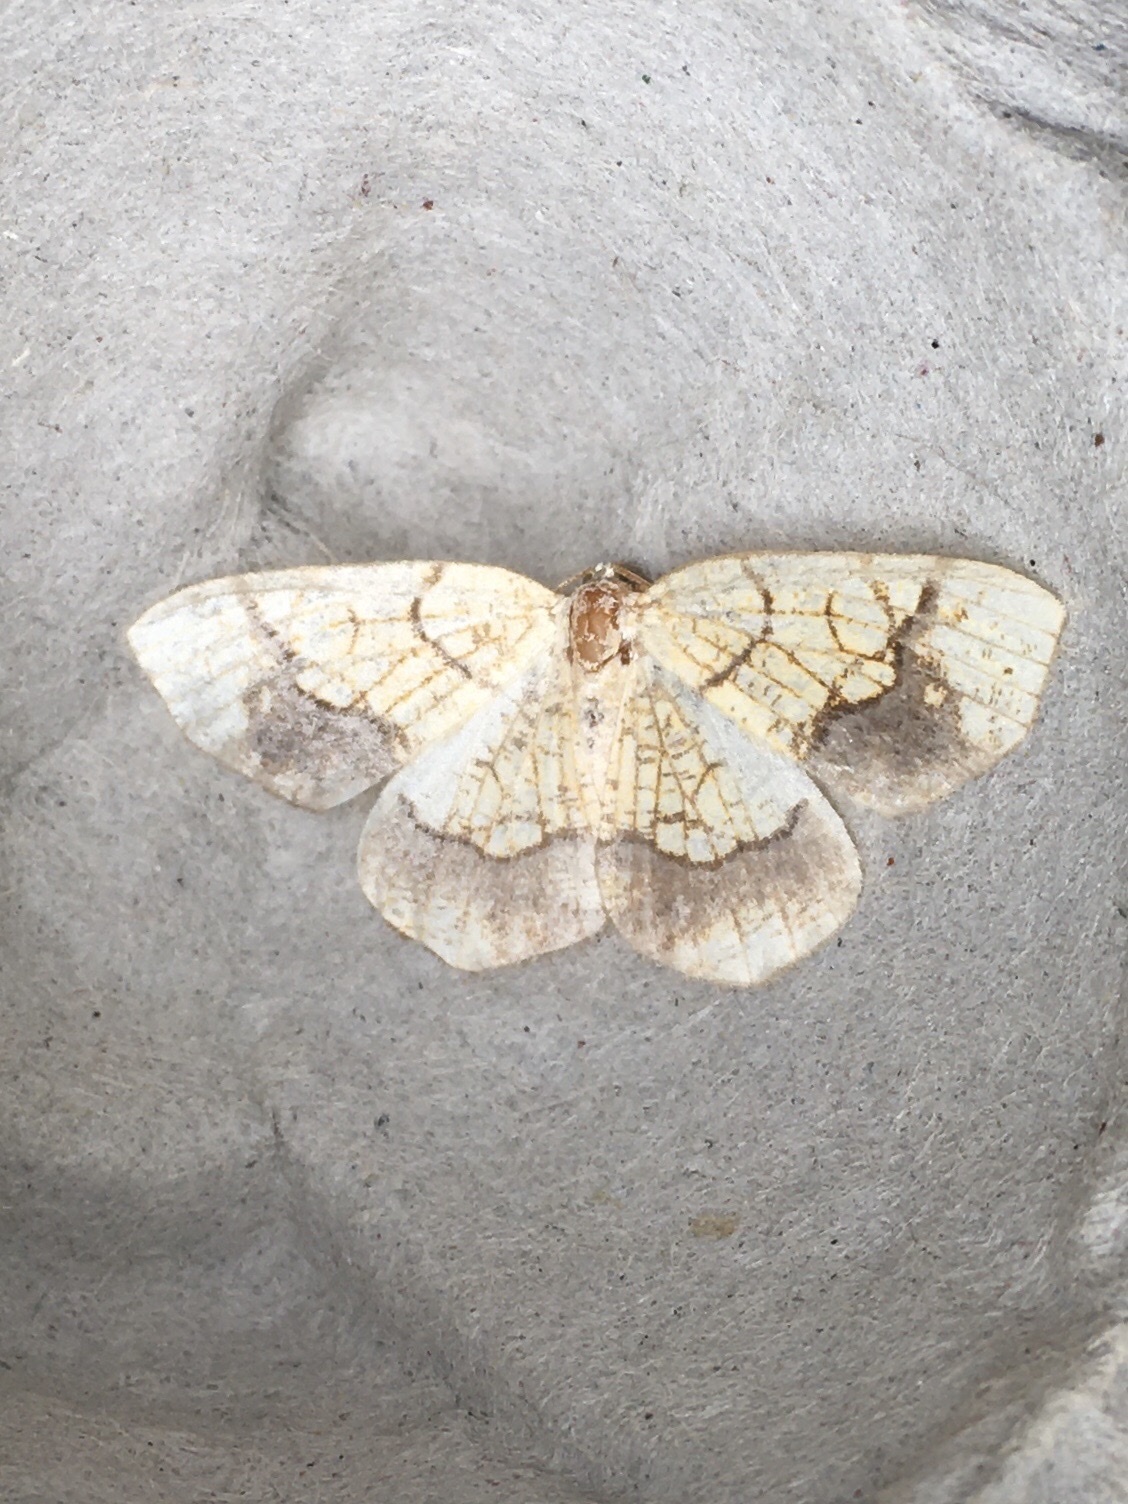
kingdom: Animalia
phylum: Arthropoda
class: Insecta
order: Lepidoptera
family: Geometridae
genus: Nematocampa
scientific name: Nematocampa resistaria
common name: Horned spanworm moth
